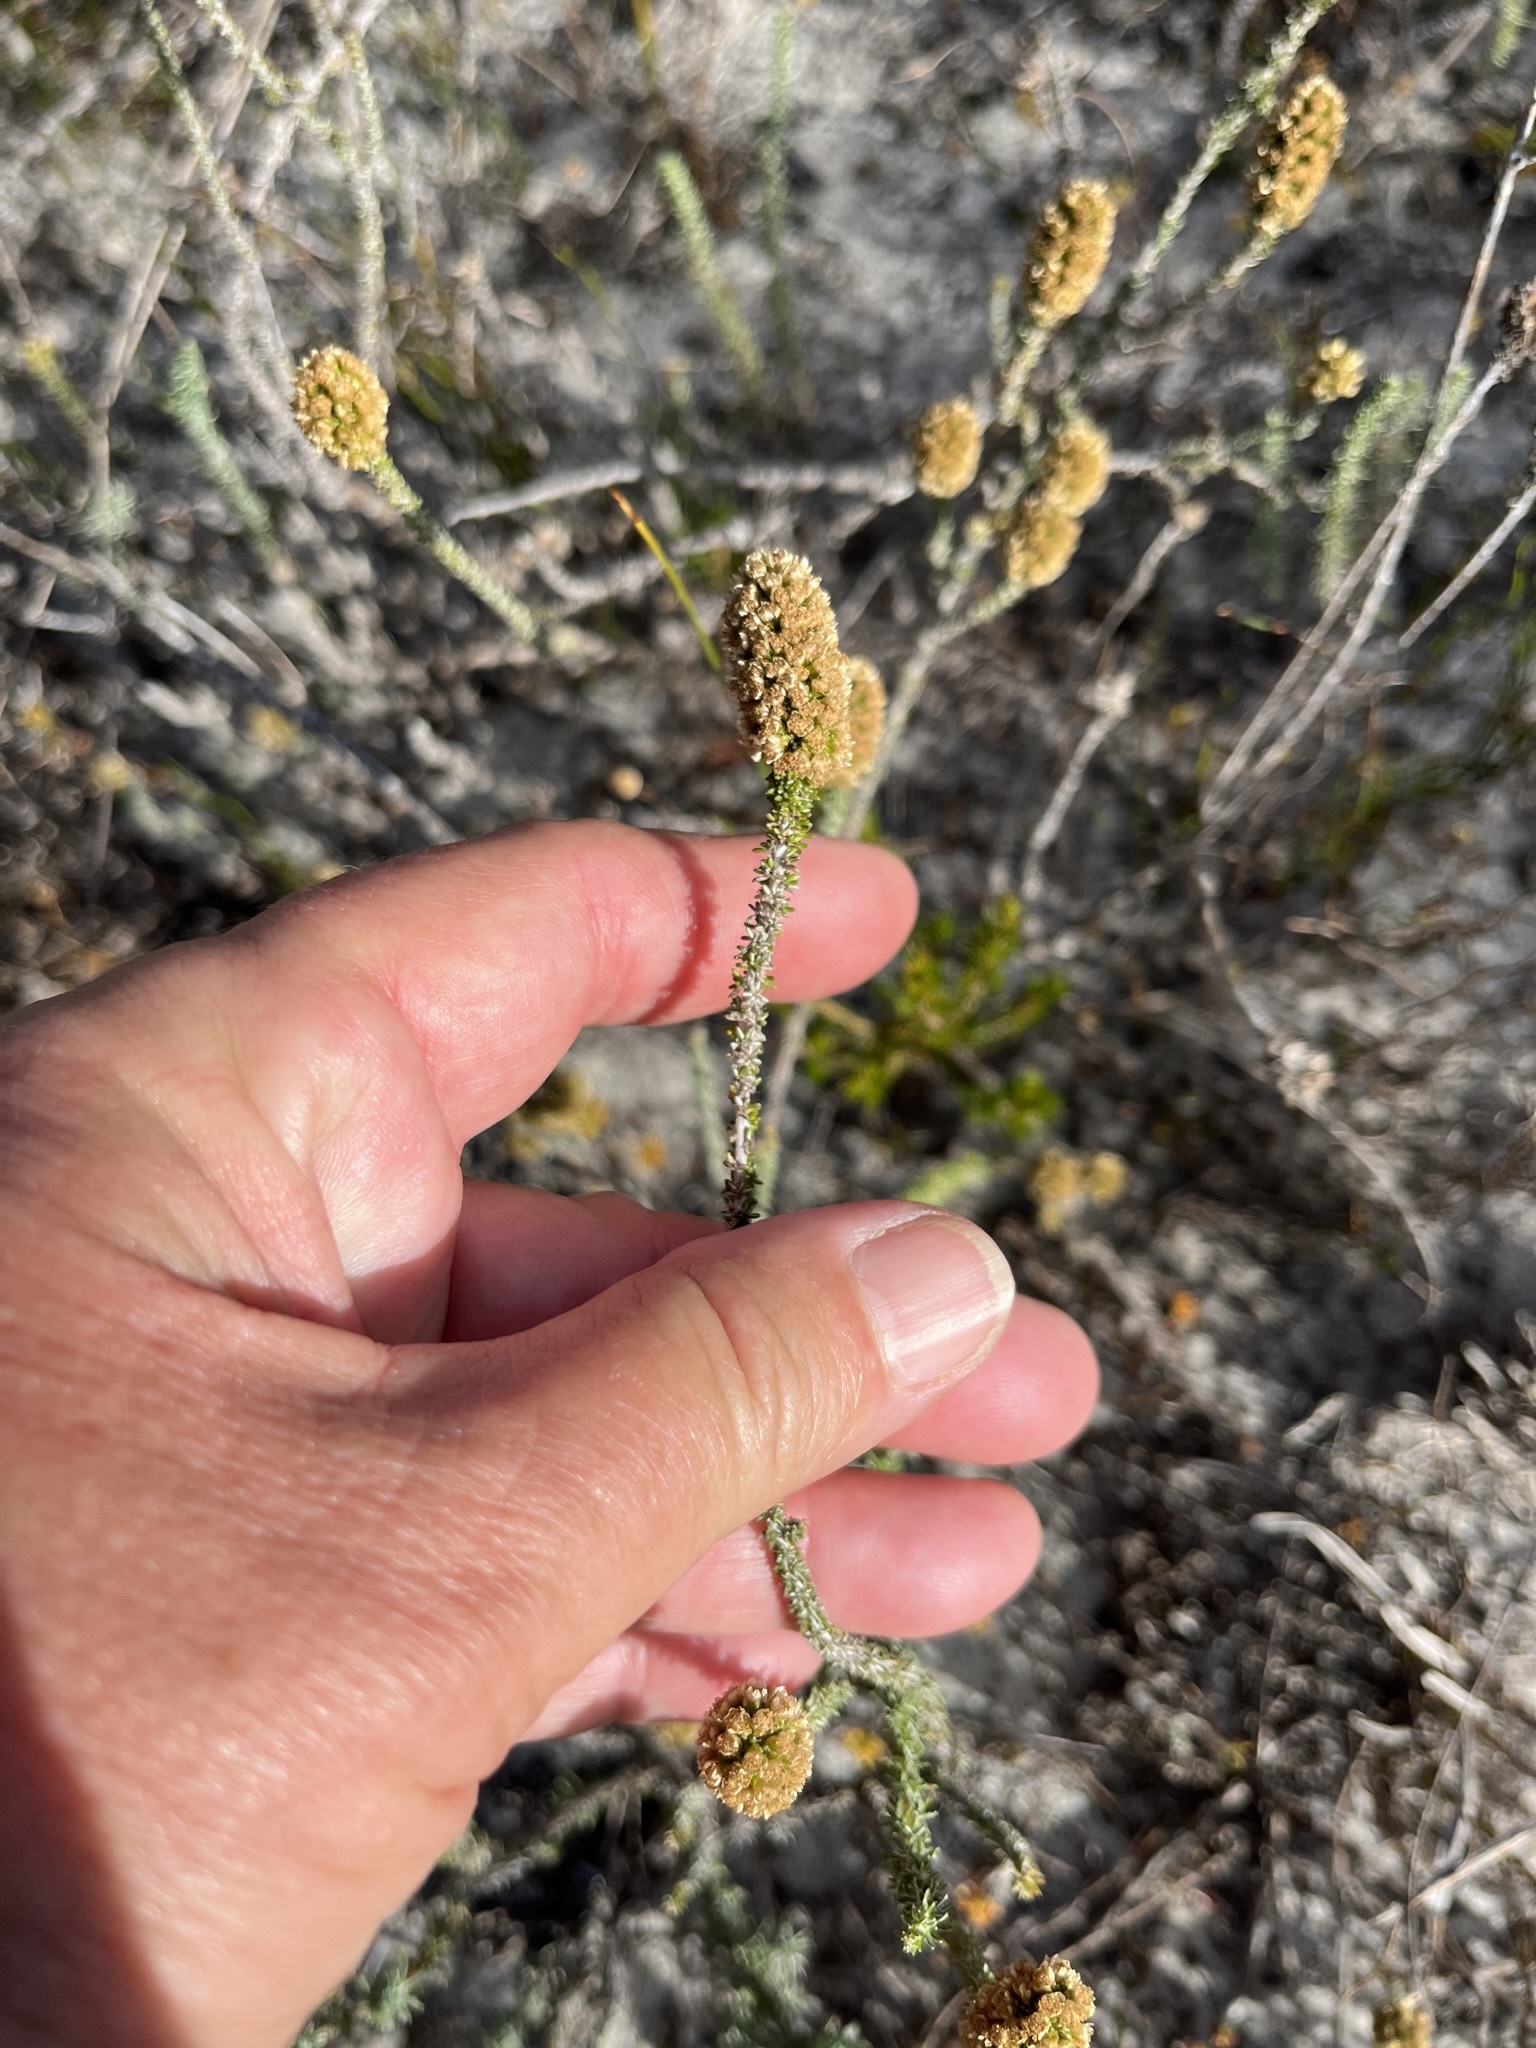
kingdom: Plantae
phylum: Tracheophyta
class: Magnoliopsida
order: Asterales
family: Asteraceae
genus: Seriphium
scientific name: Seriphium spirale
